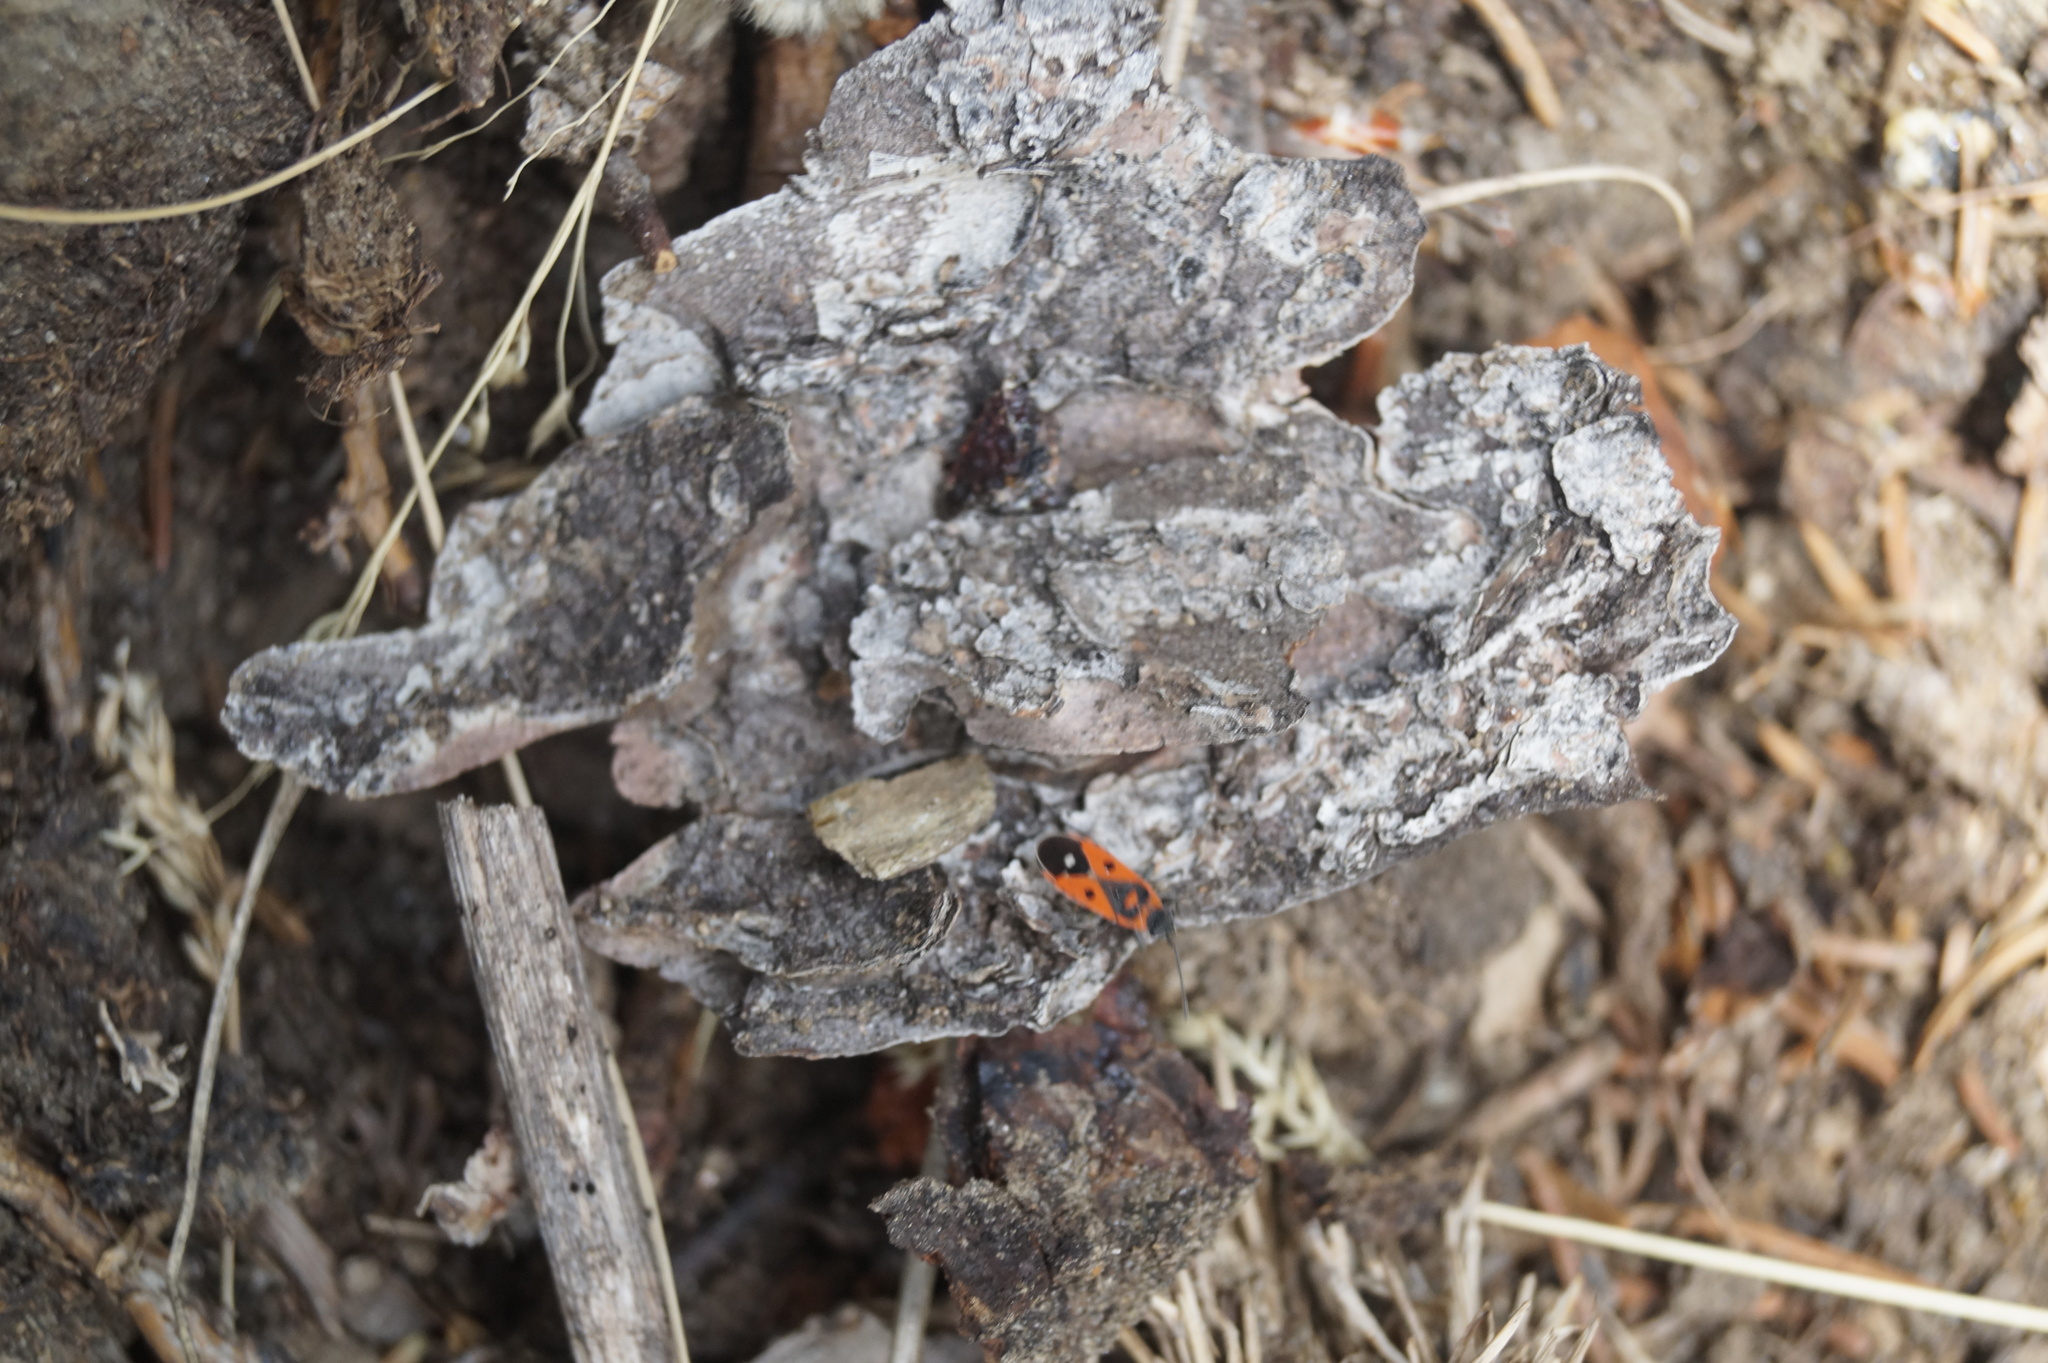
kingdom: Animalia
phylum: Arthropoda
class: Insecta
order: Hemiptera
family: Lygaeidae
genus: Melanocoryphus
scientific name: Melanocoryphus albomaculatus
